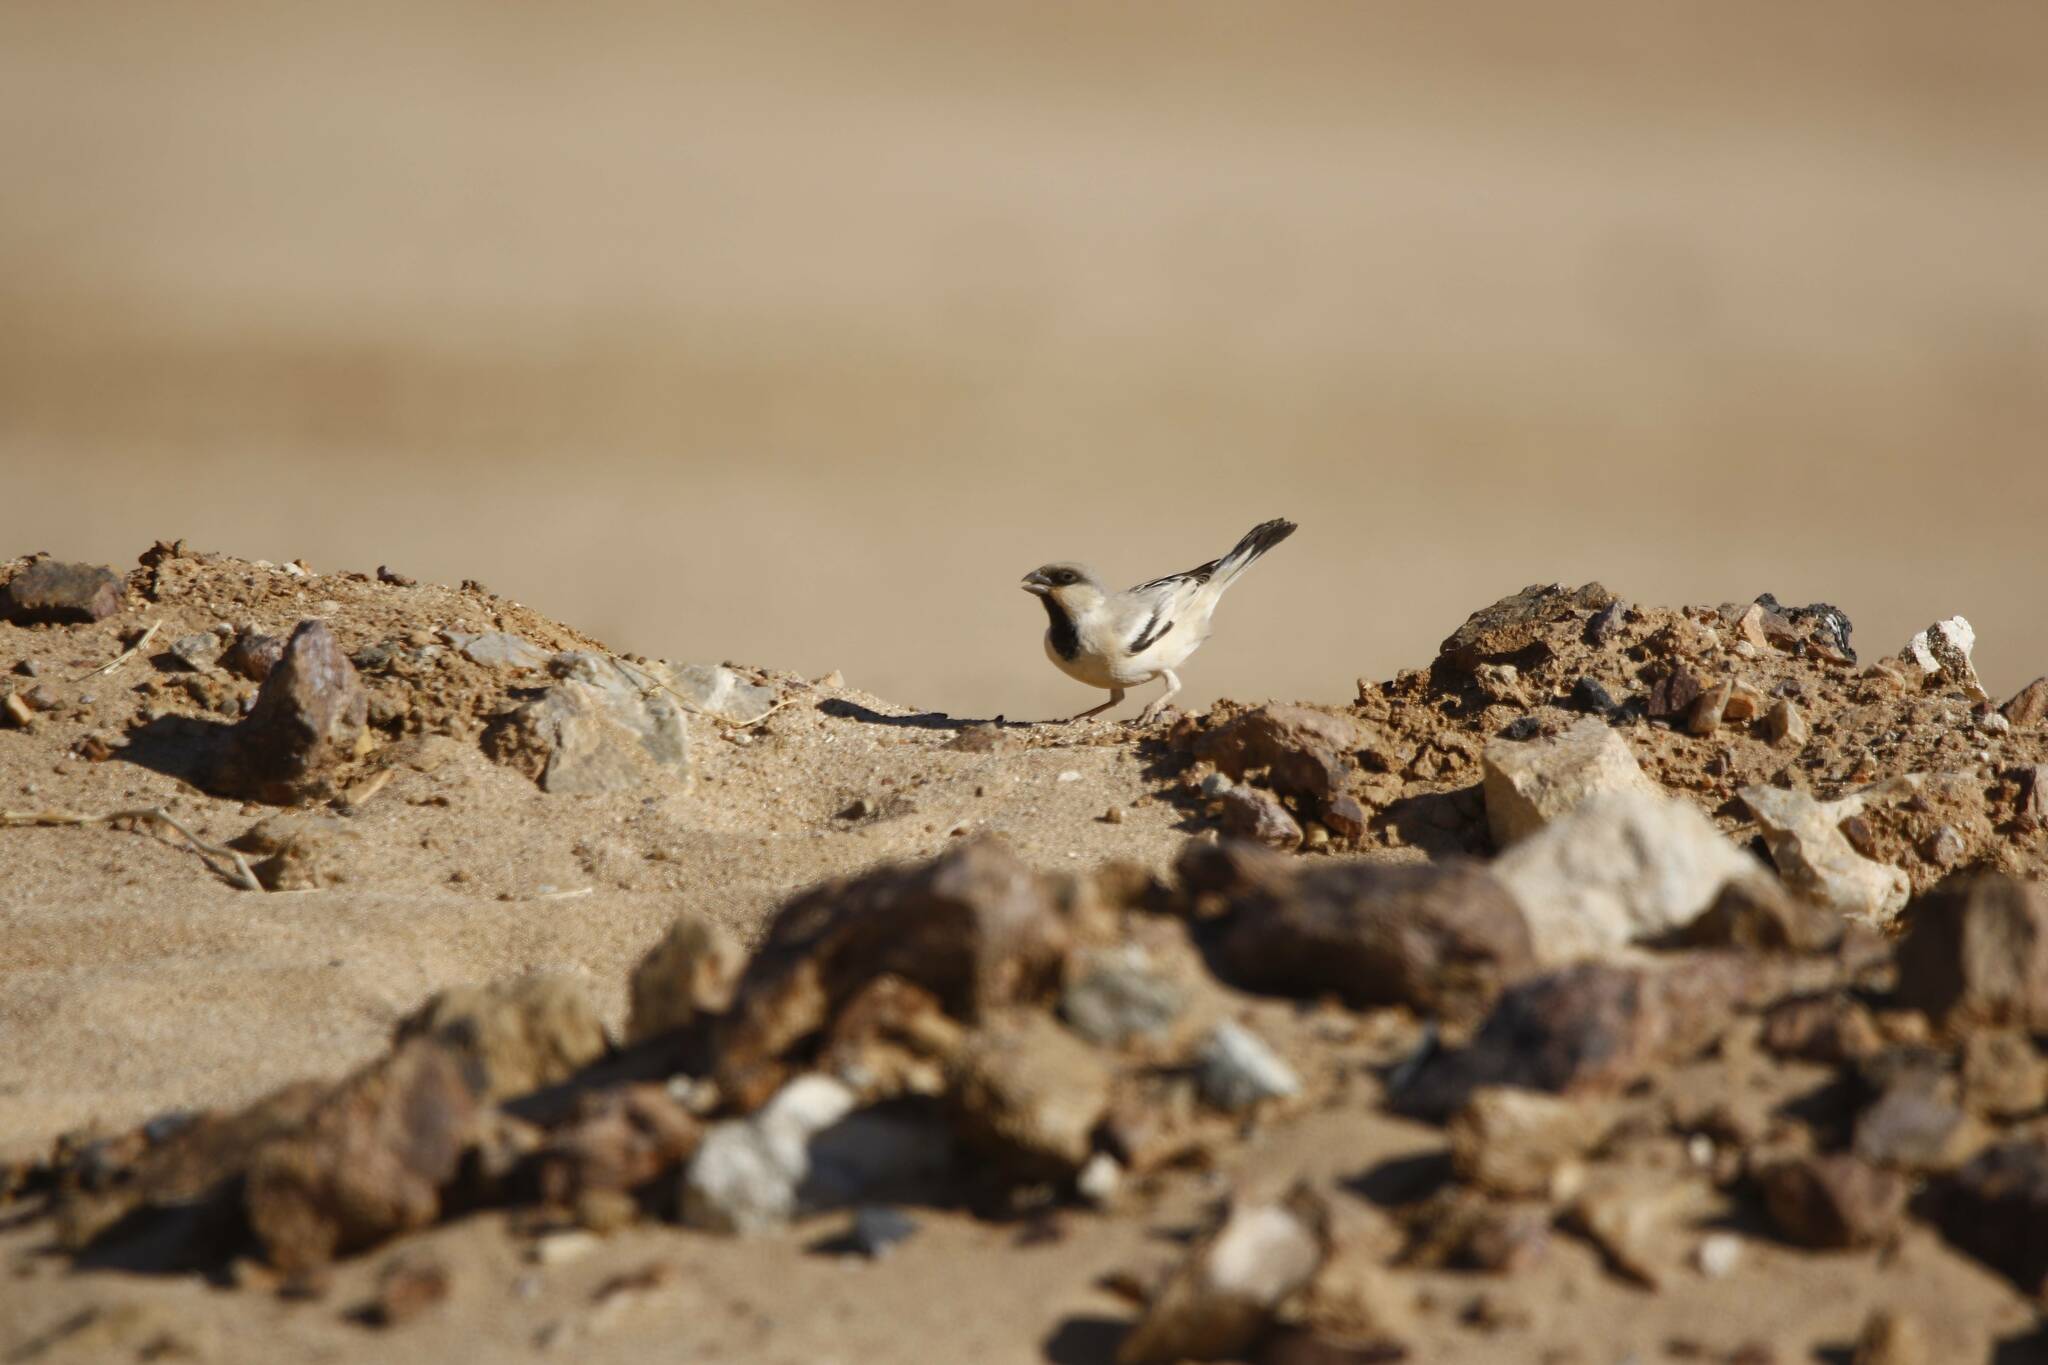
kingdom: Animalia
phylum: Chordata
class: Aves
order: Passeriformes
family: Passeridae
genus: Passer
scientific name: Passer simplex
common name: Desert sparrow
